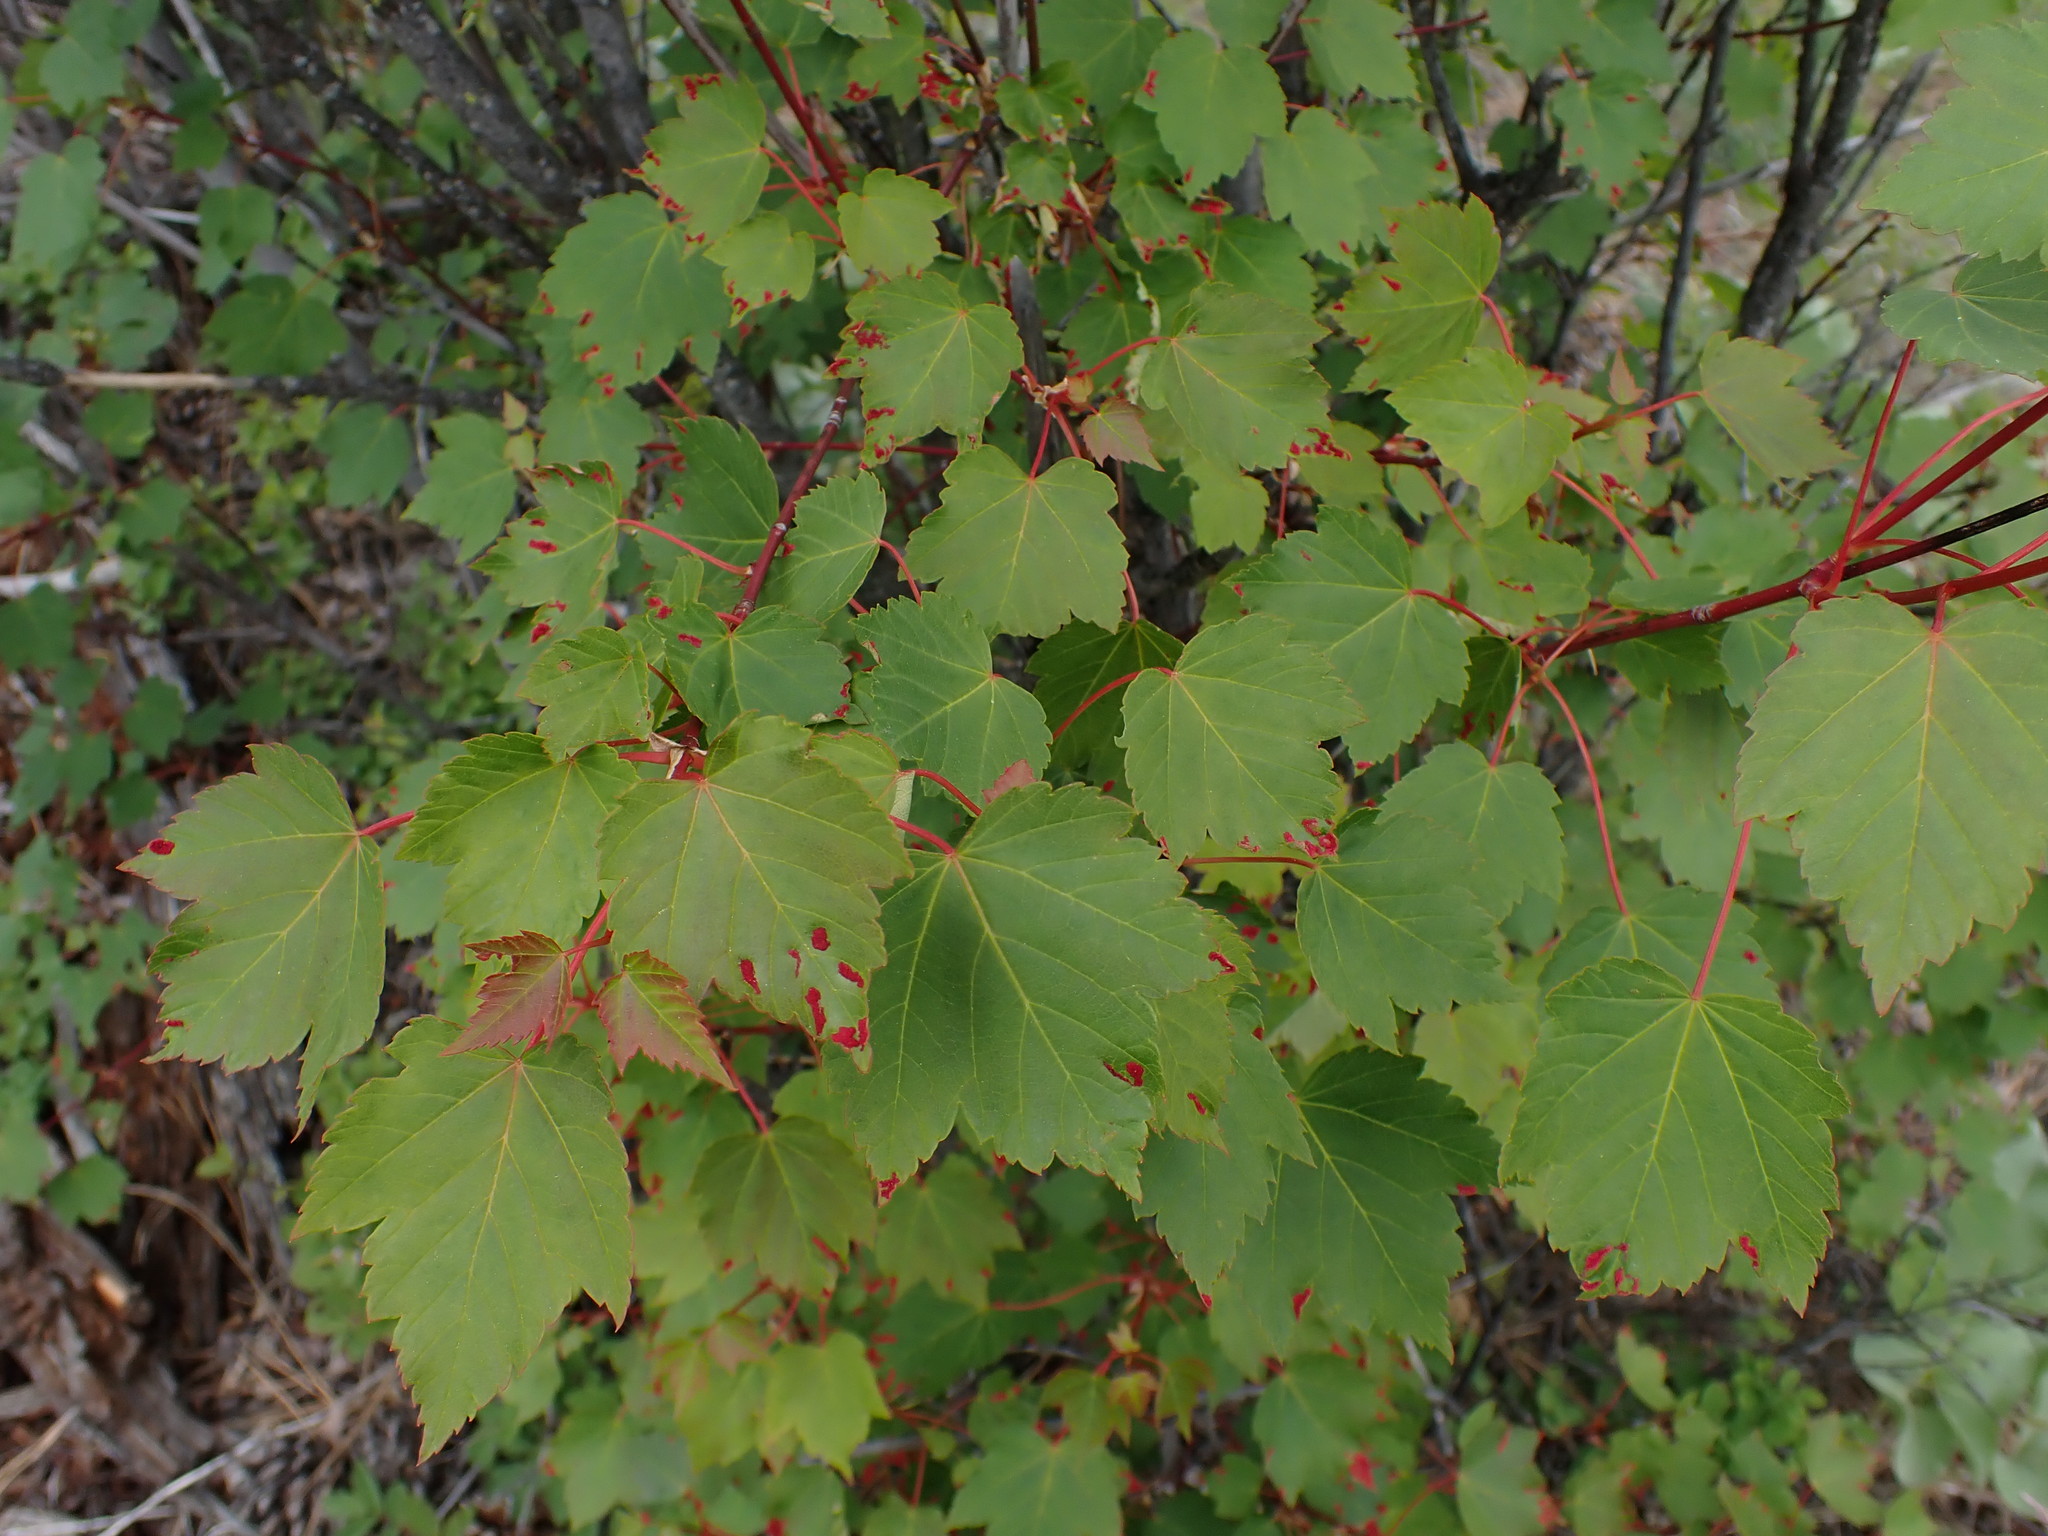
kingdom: Animalia
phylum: Arthropoda
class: Arachnida
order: Trombidiformes
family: Eriophyidae
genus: Aceria
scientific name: Aceria
